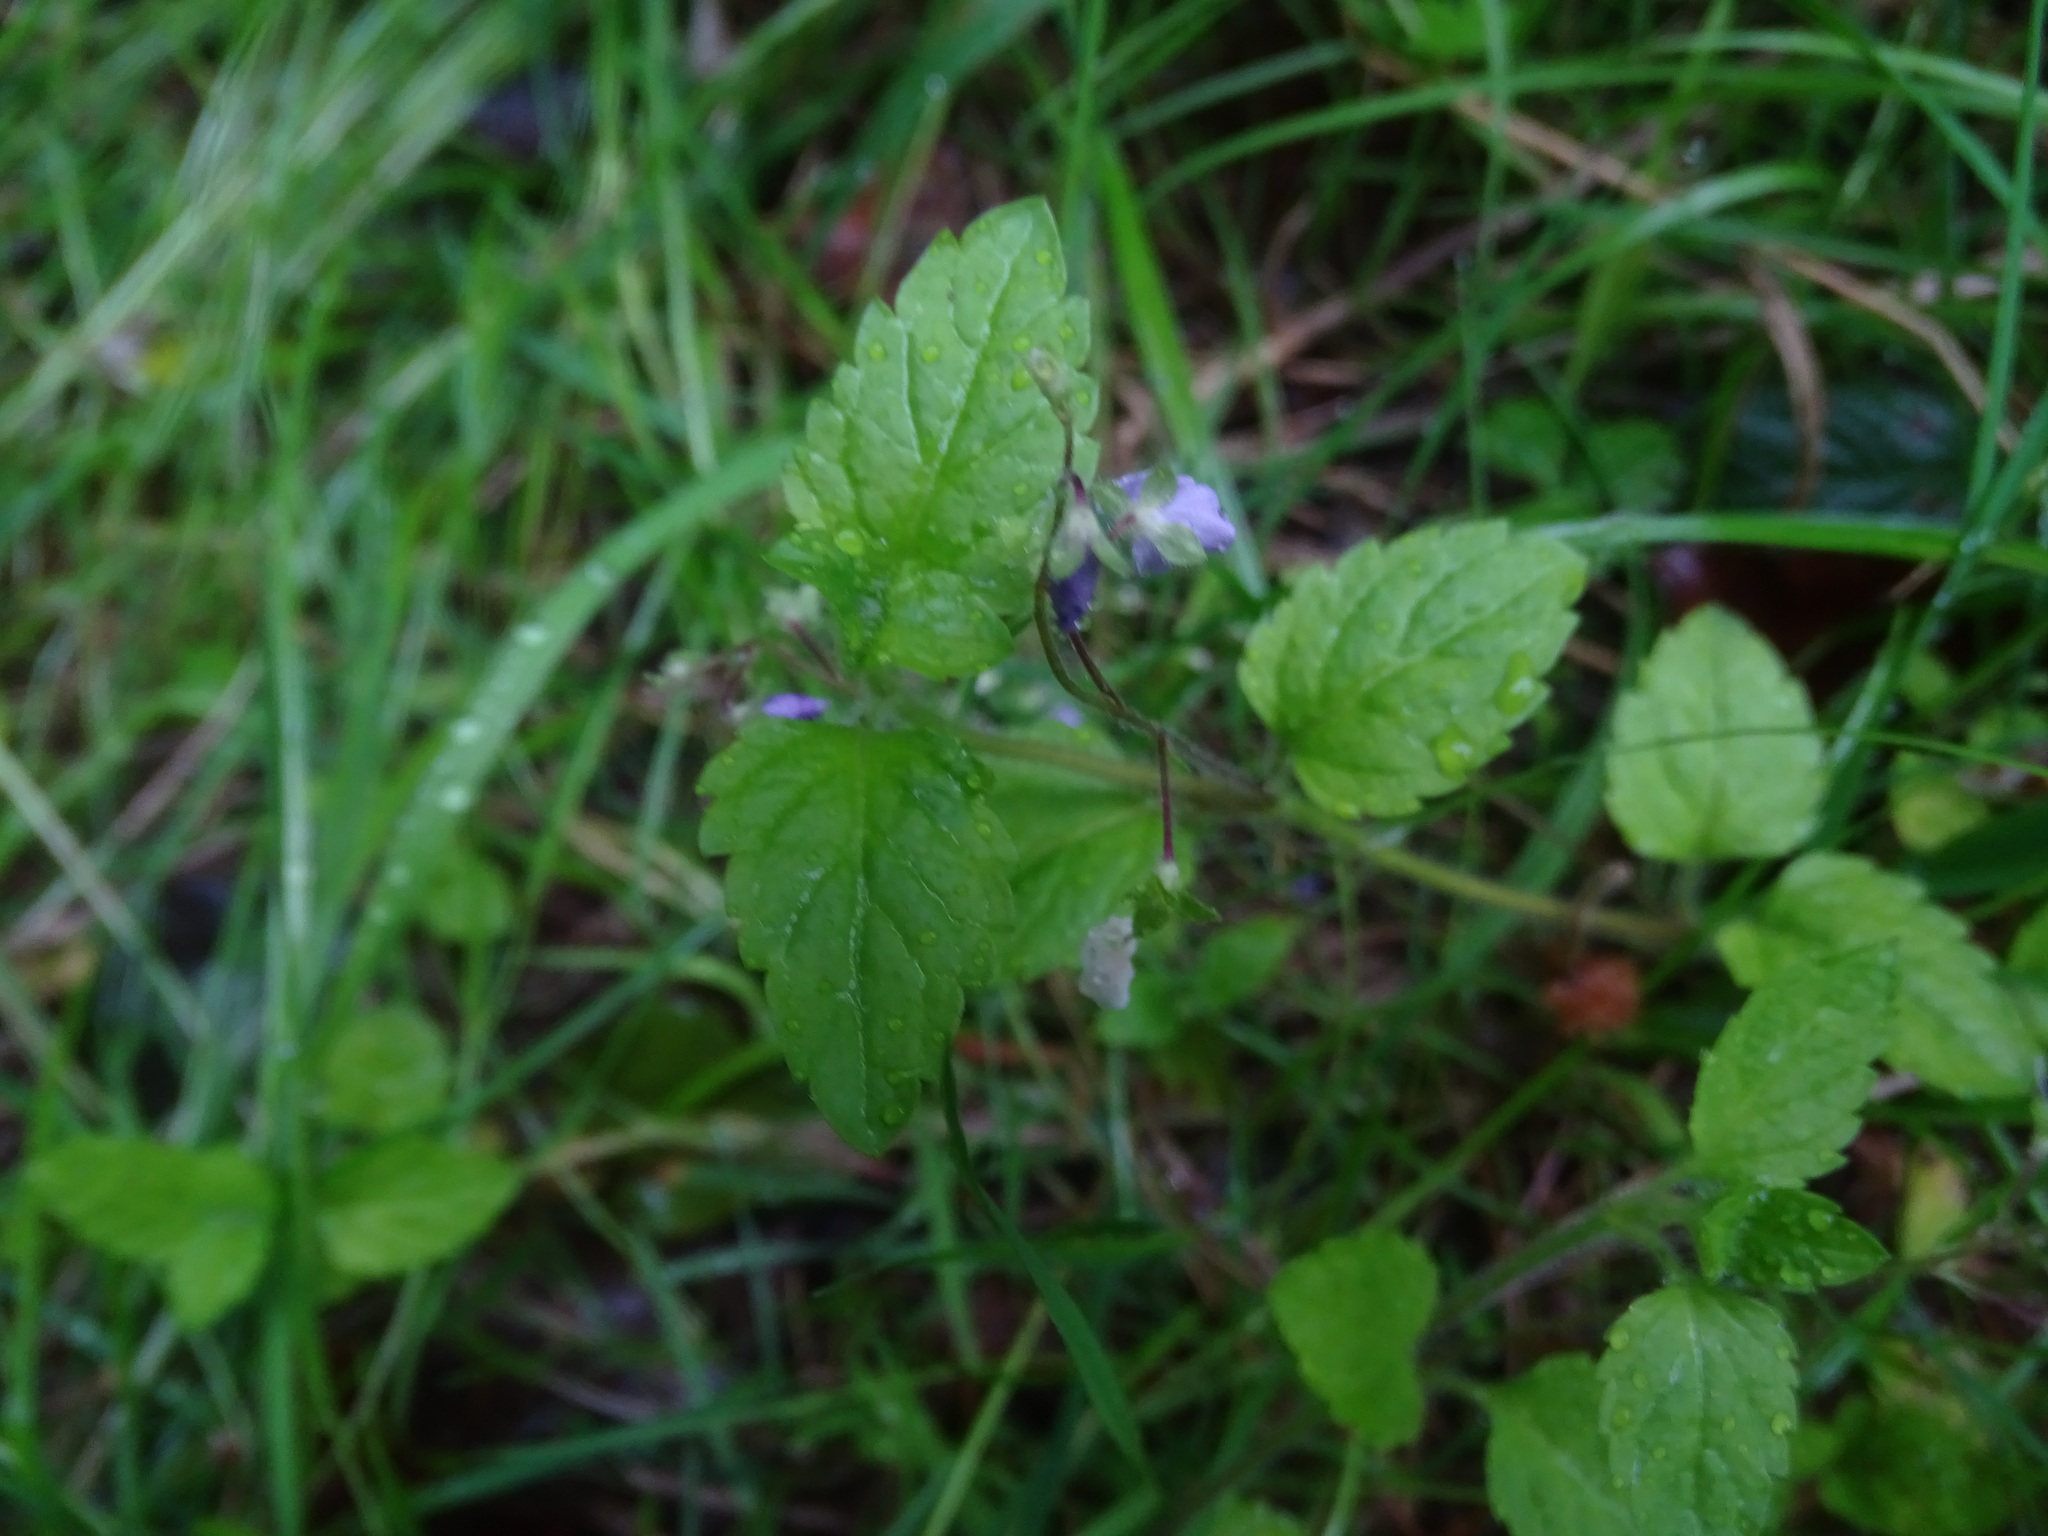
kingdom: Plantae
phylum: Tracheophyta
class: Magnoliopsida
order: Lamiales
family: Plantaginaceae
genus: Veronica
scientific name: Veronica montana
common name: Wood speedwell
